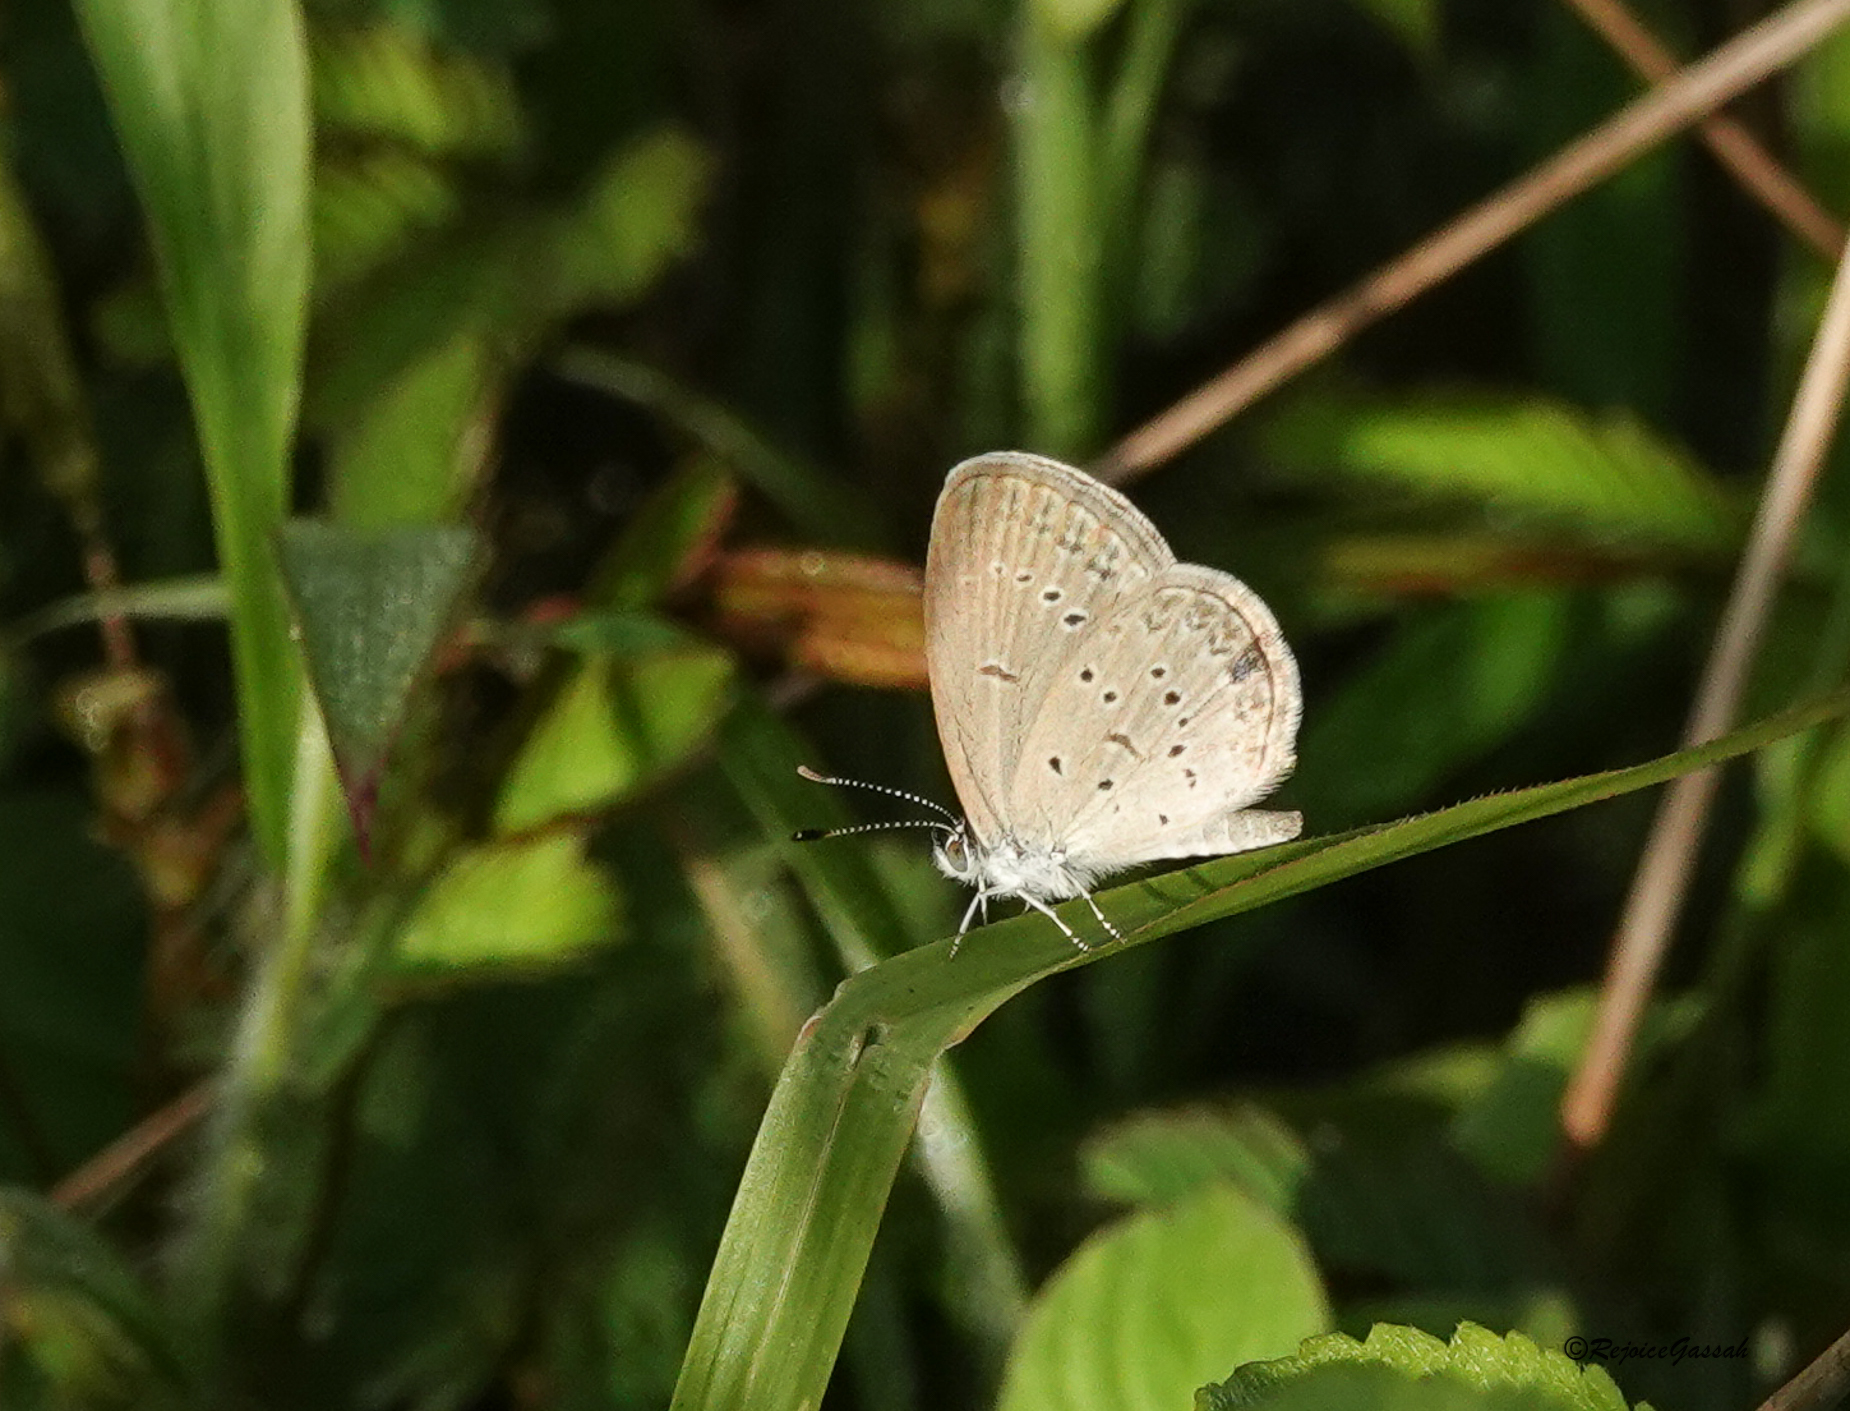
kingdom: Animalia
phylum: Arthropoda
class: Insecta
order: Lepidoptera
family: Lycaenidae
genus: Zizina
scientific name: Zizina otis
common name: Lesser grass blue
